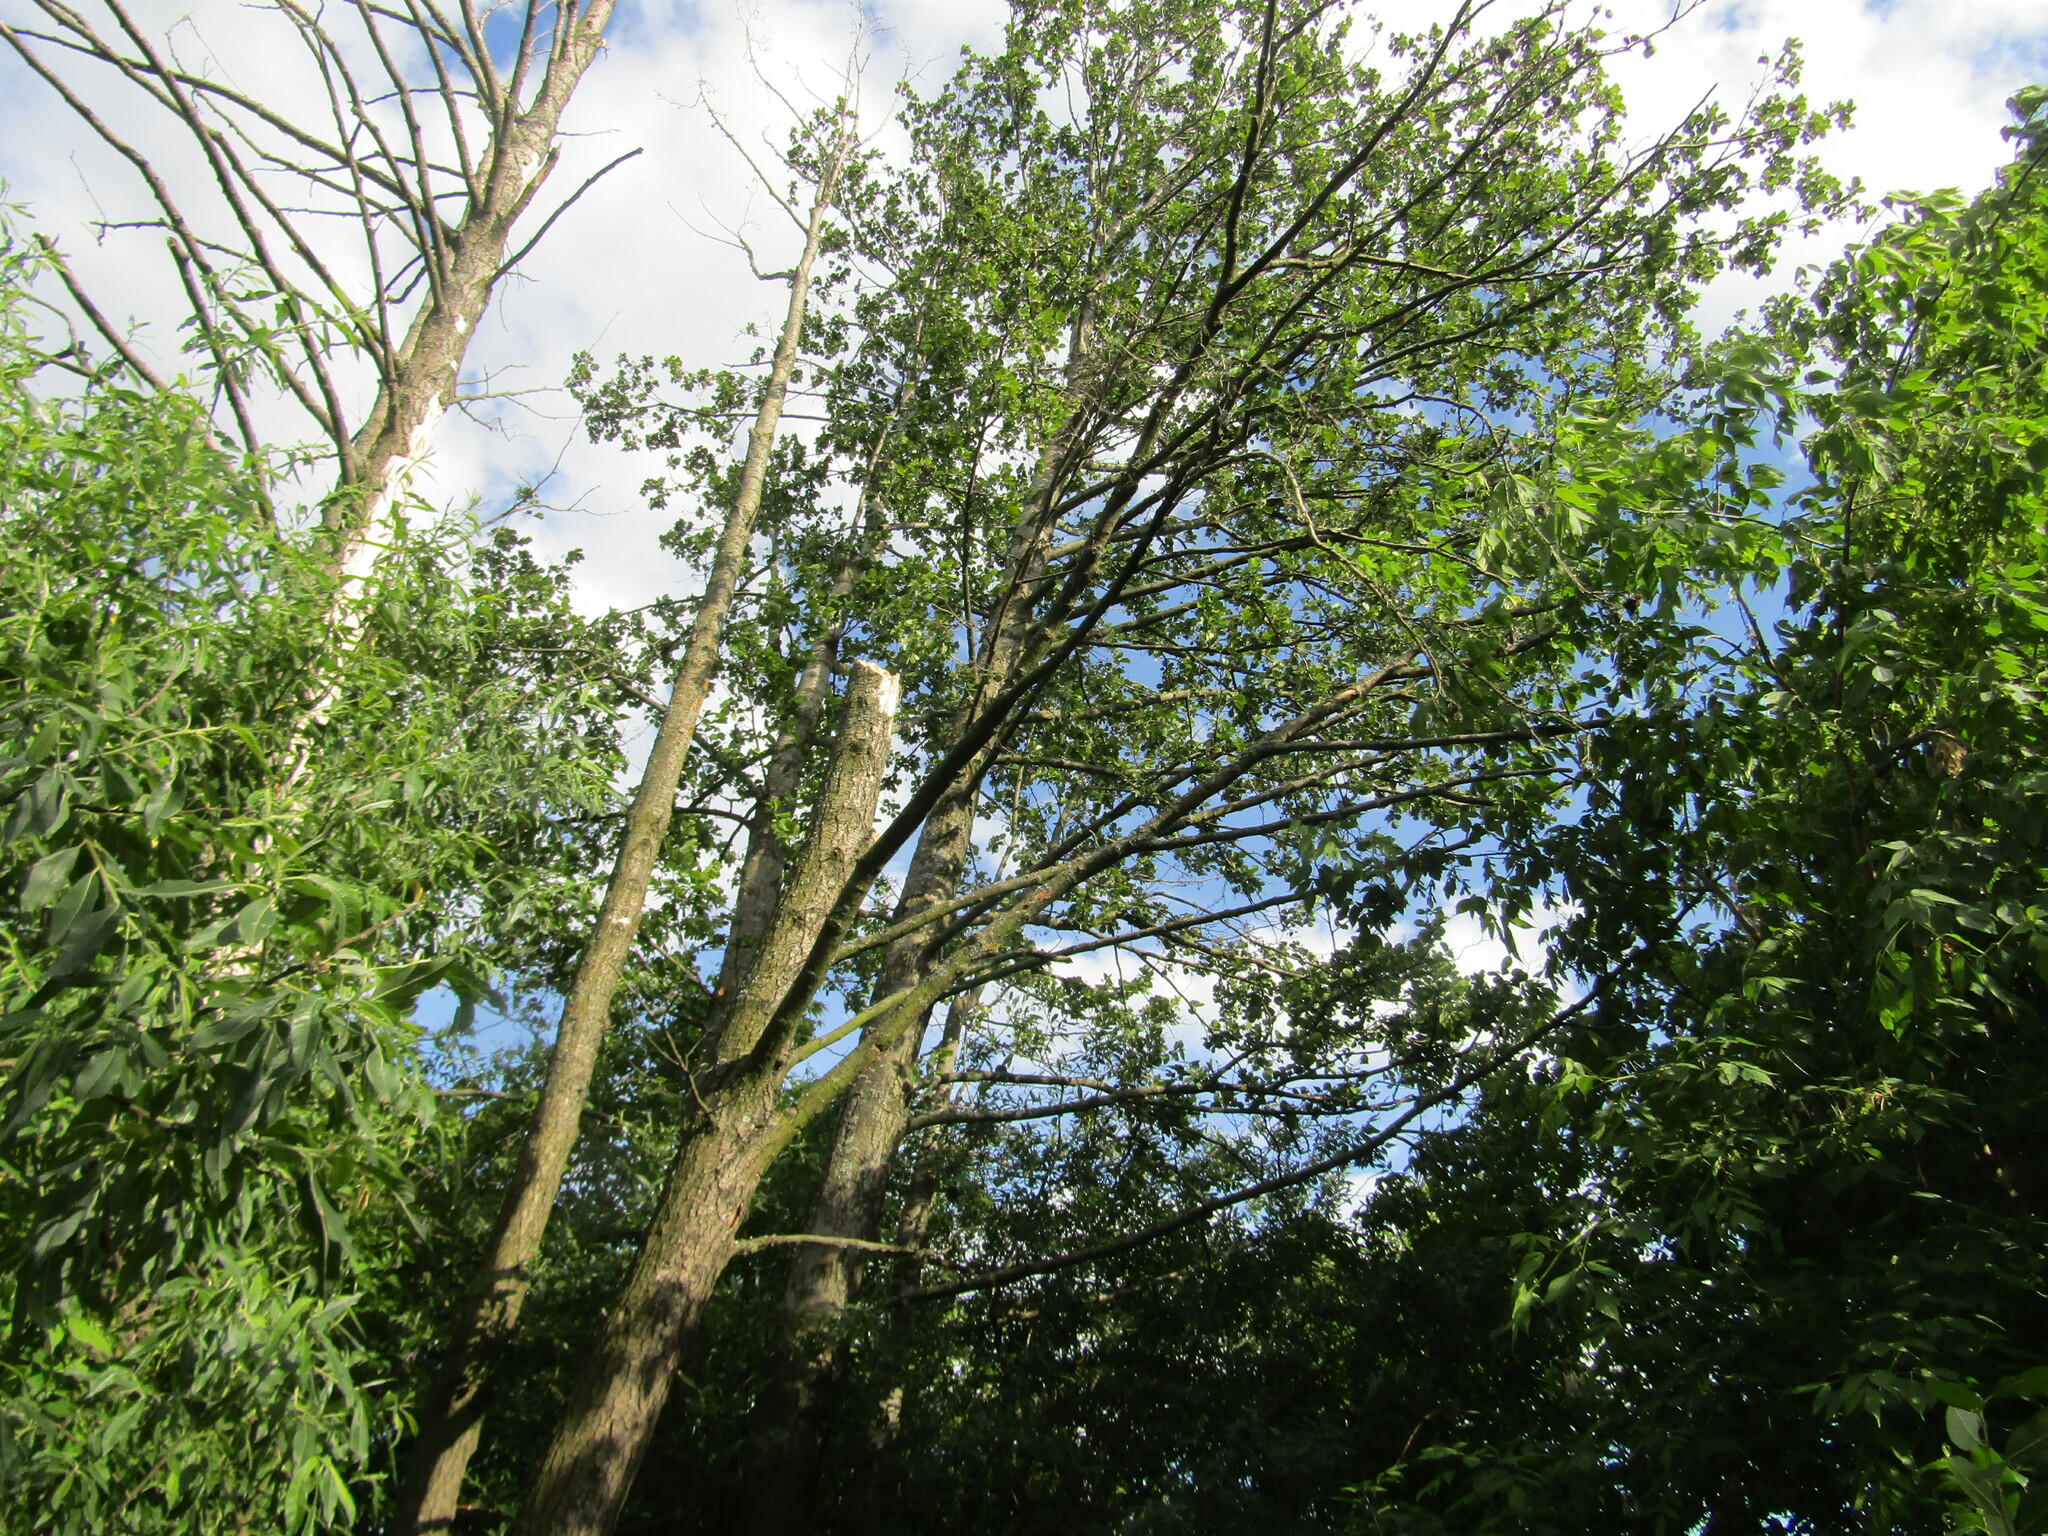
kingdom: Plantae
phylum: Tracheophyta
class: Magnoliopsida
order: Fagales
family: Betulaceae
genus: Alnus
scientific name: Alnus glutinosa
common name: Black alder
